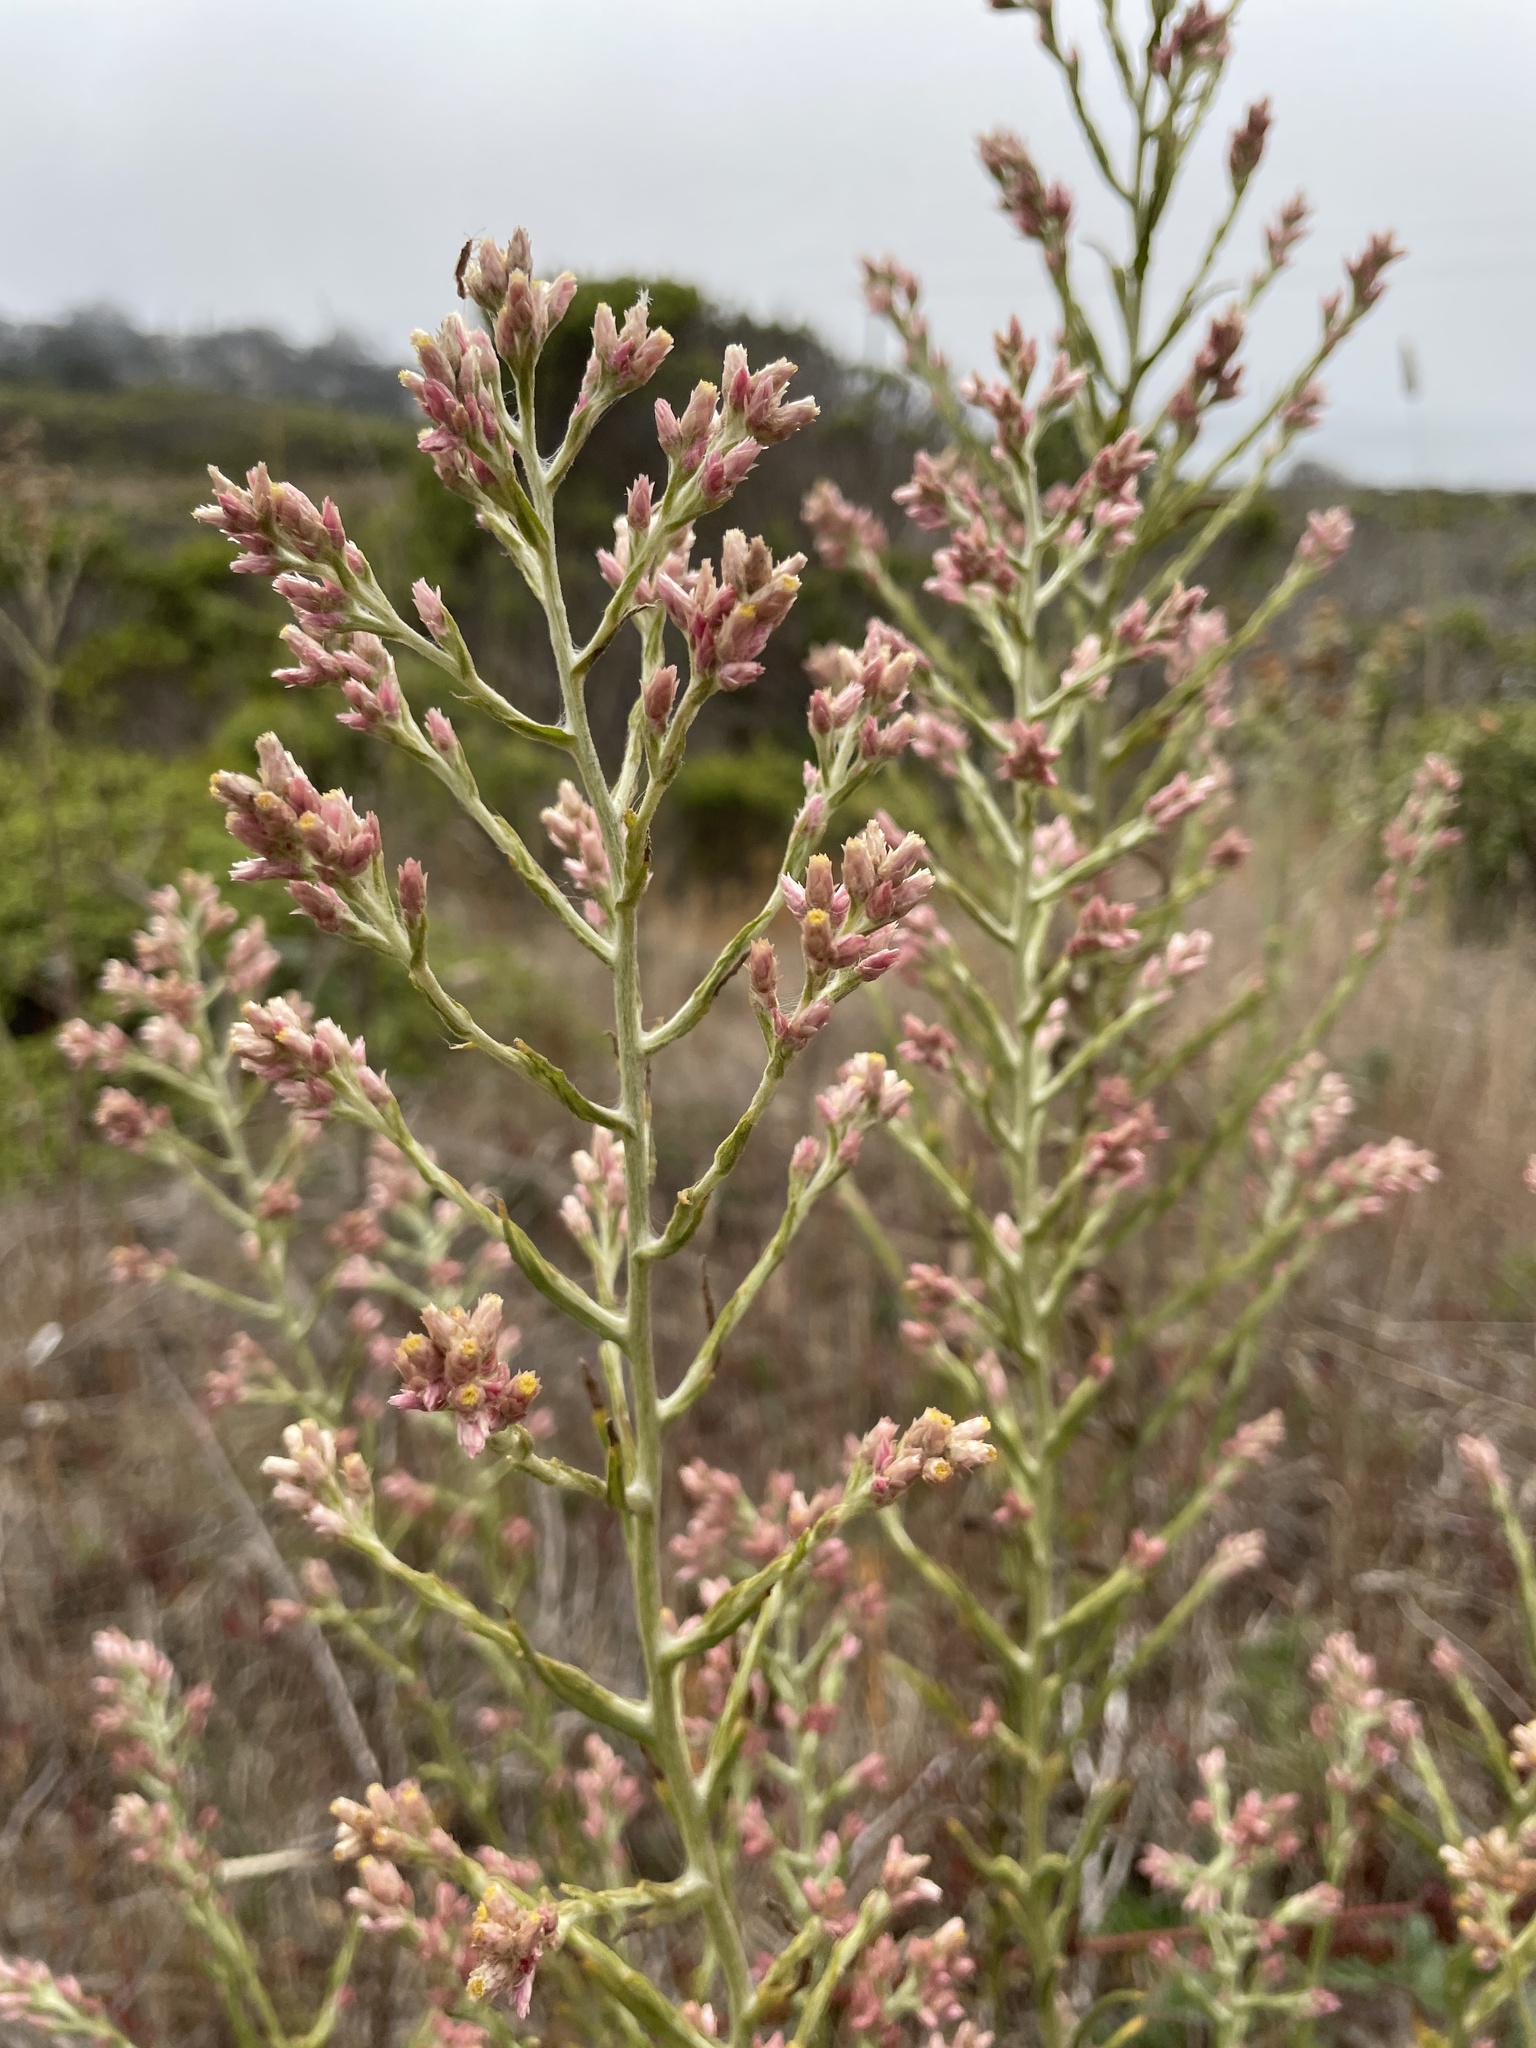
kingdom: Plantae
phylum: Tracheophyta
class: Magnoliopsida
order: Asterales
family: Asteraceae
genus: Pseudognaphalium
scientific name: Pseudognaphalium ramosissimum
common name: Pink rabbit-tobacco
